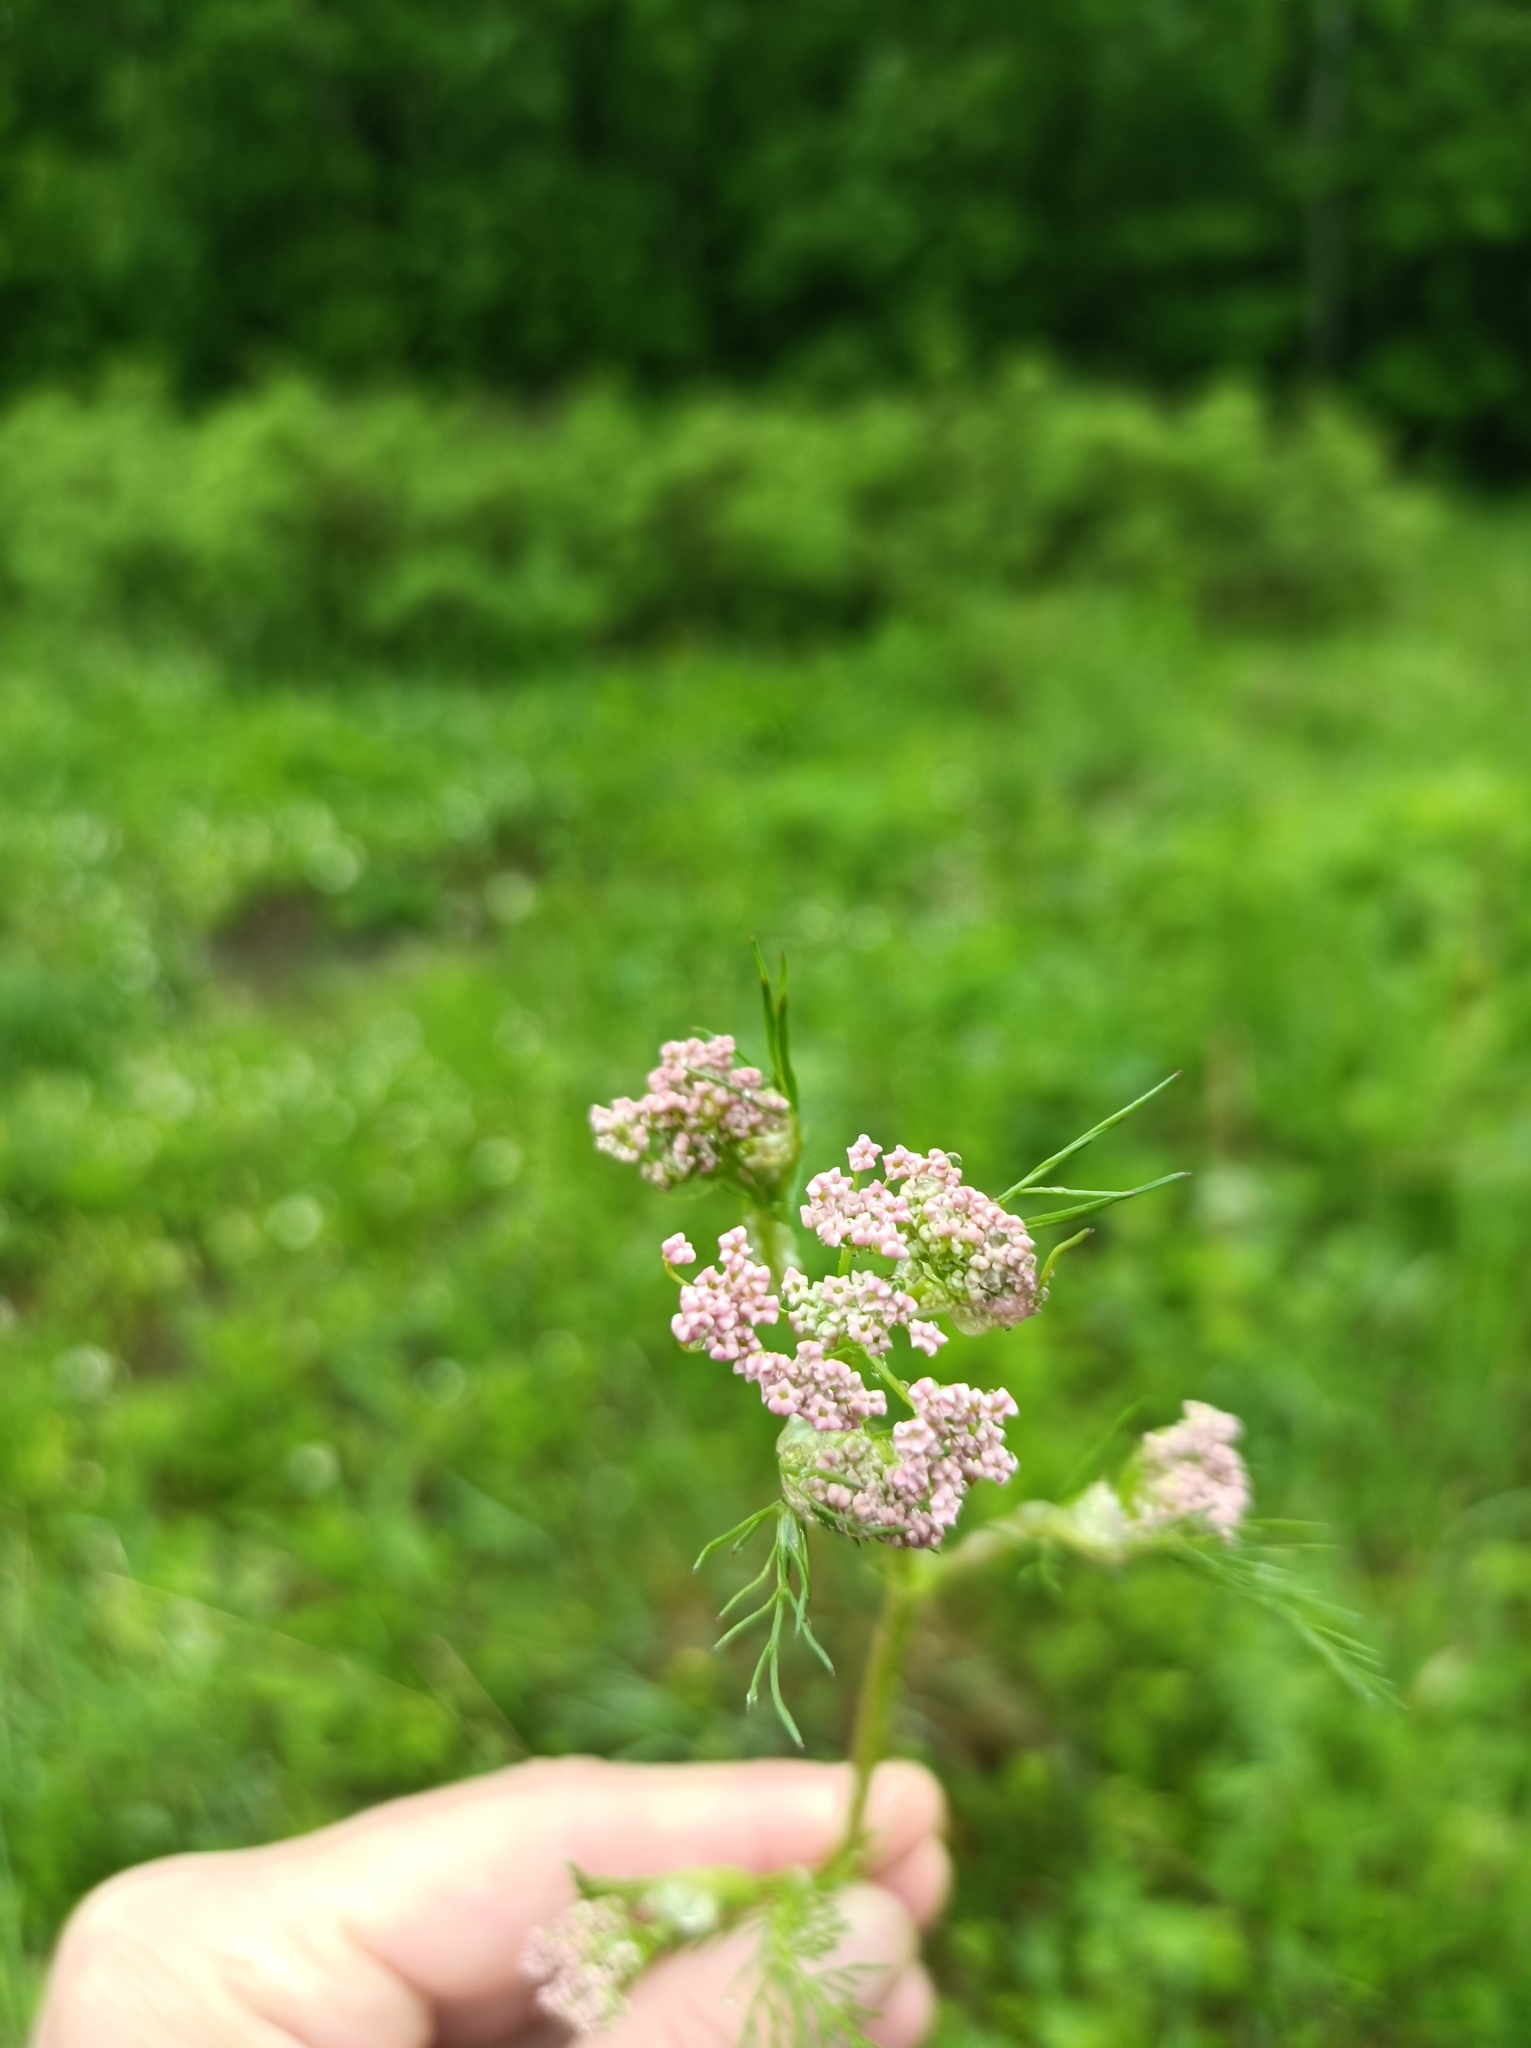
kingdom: Plantae
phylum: Tracheophyta
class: Magnoliopsida
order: Apiales
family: Apiaceae
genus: Carum
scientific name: Carum carvi
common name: Caraway
